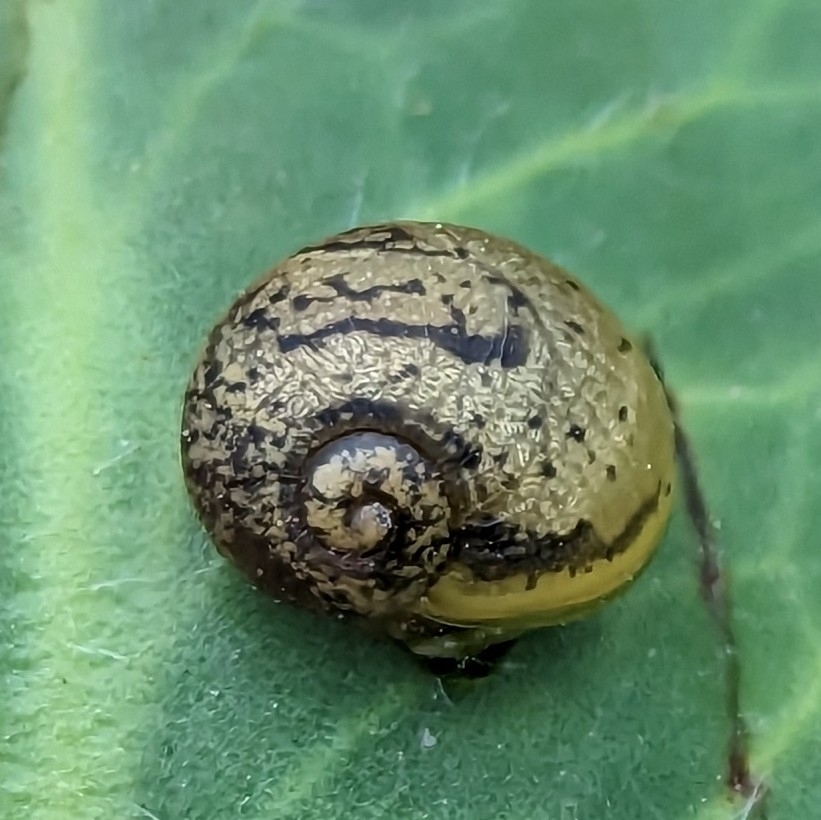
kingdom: Animalia
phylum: Mollusca
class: Gastropoda
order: Stylommatophora
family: Helicidae
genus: Cantareus
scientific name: Cantareus apertus
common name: Green gardensnail
